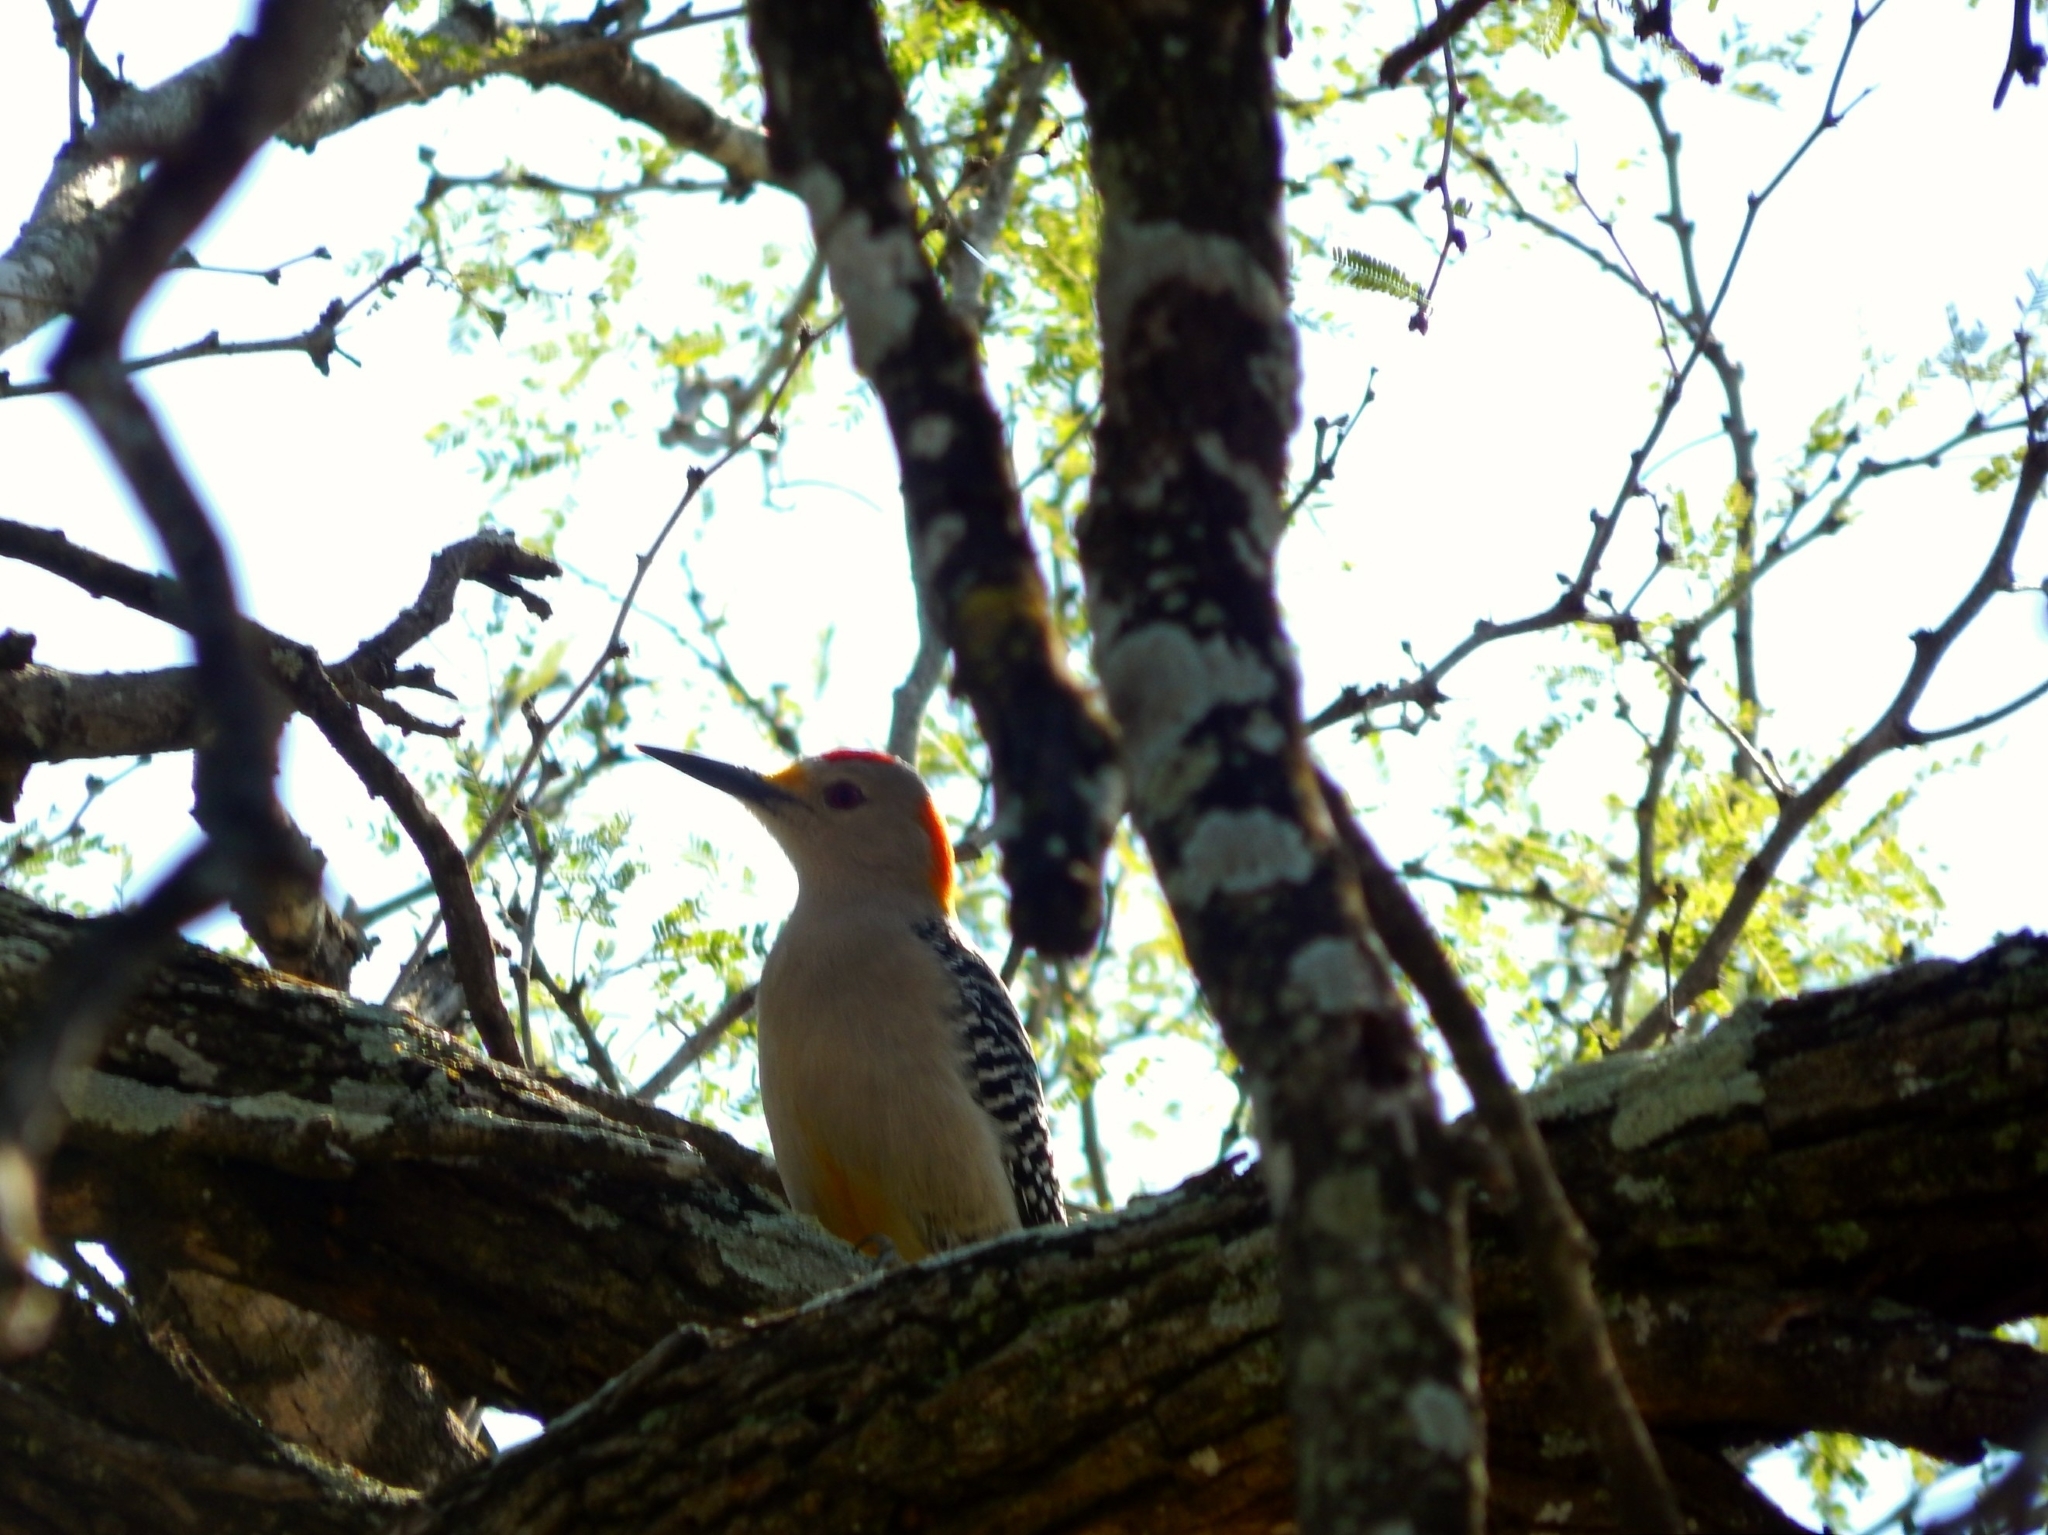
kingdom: Animalia
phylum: Chordata
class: Aves
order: Piciformes
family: Picidae
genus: Melanerpes
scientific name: Melanerpes aurifrons
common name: Golden-fronted woodpecker
